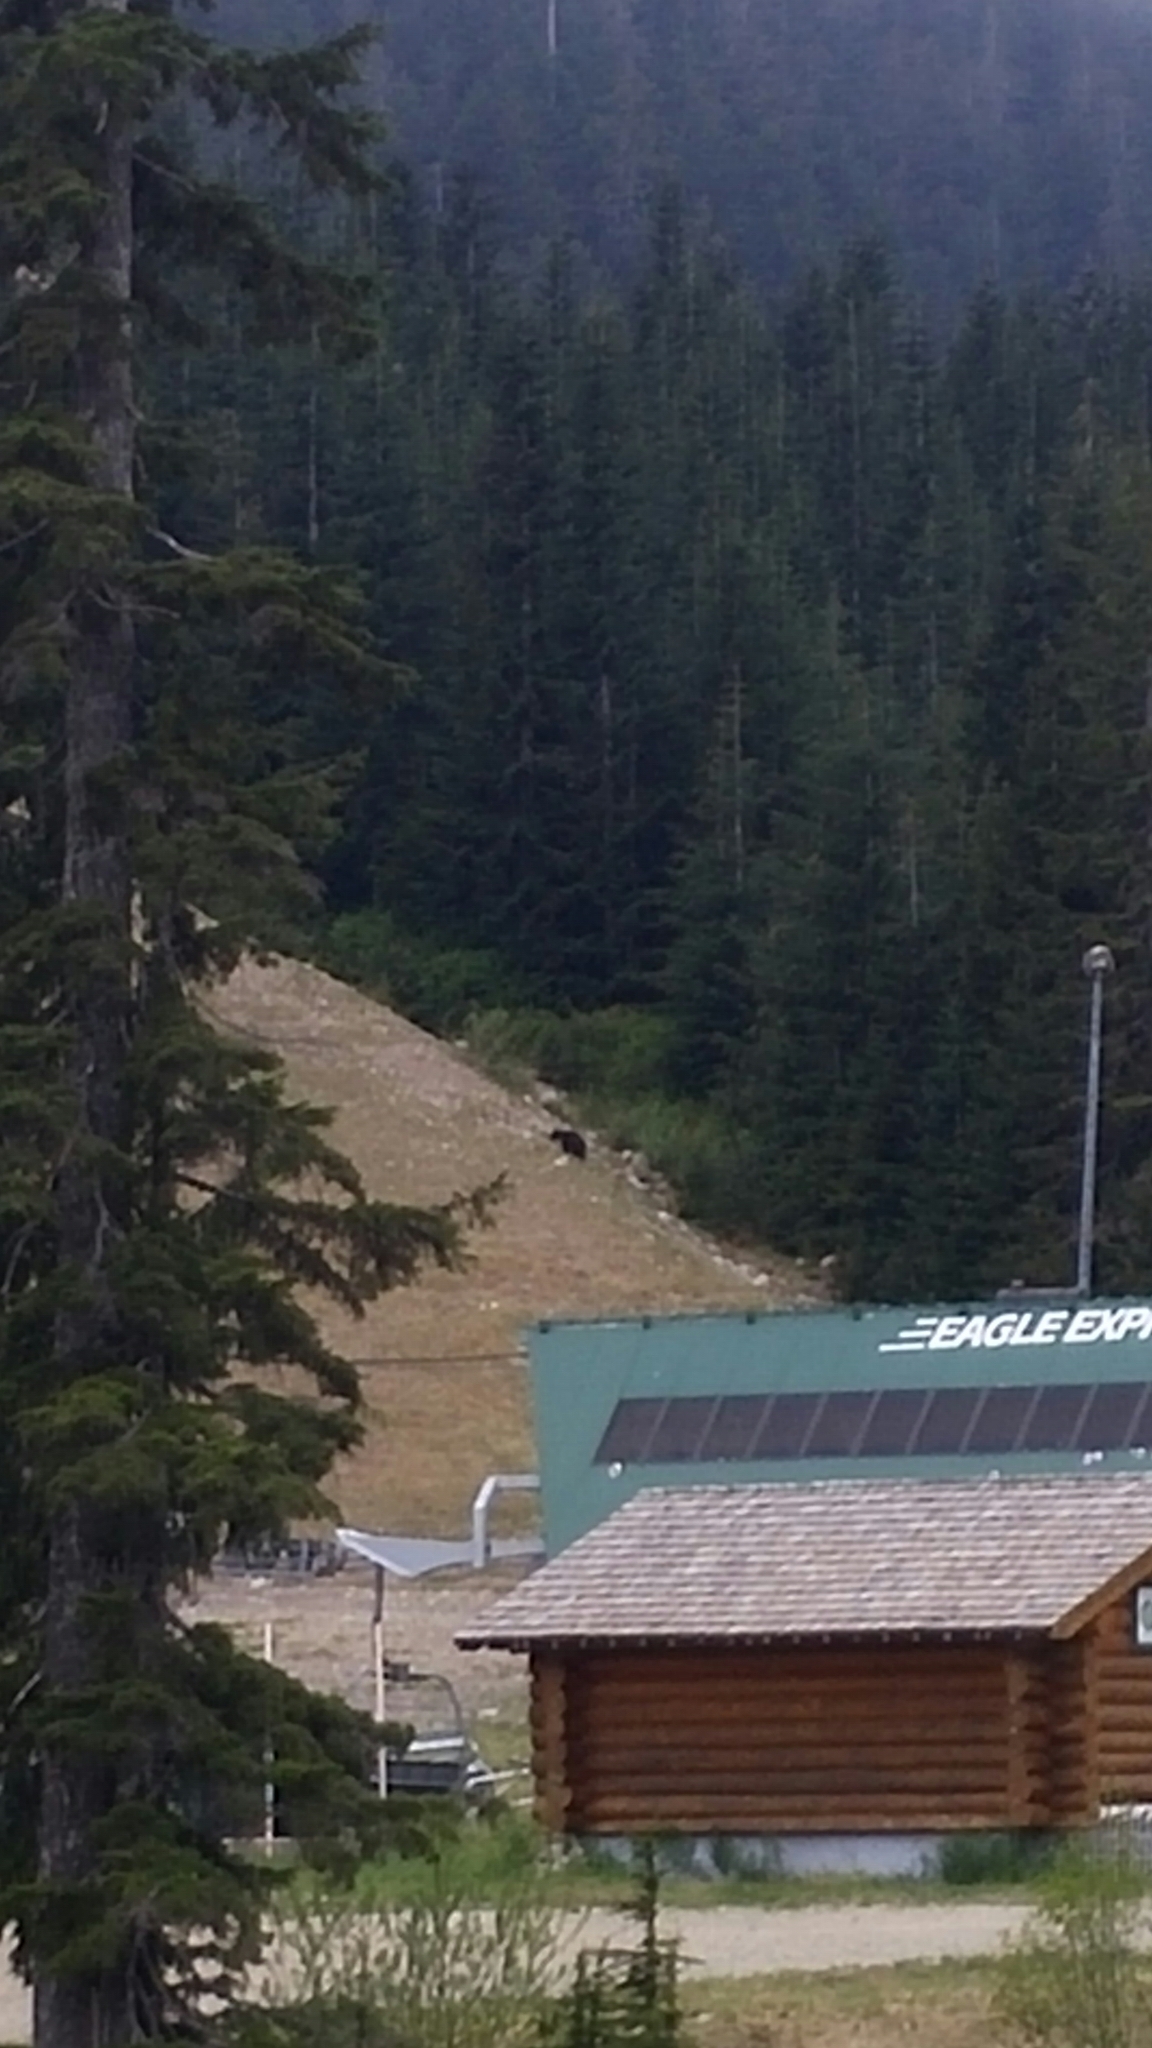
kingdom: Animalia
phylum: Chordata
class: Mammalia
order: Carnivora
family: Ursidae
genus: Ursus
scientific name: Ursus americanus
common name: American black bear
